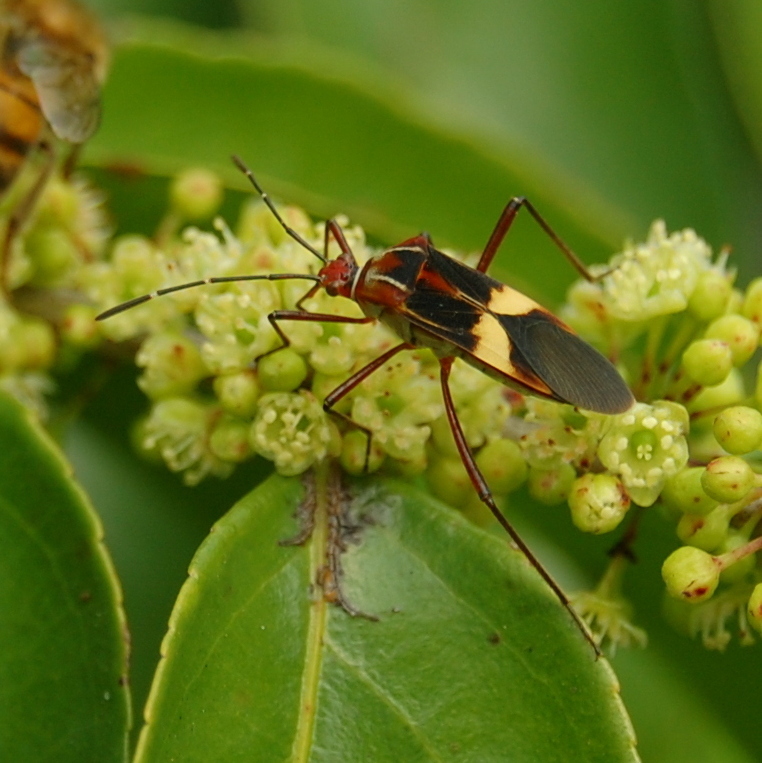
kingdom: Animalia
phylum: Arthropoda
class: Insecta
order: Hemiptera
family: Coreidae
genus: Hypselonotus
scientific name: Hypselonotus interruptus
